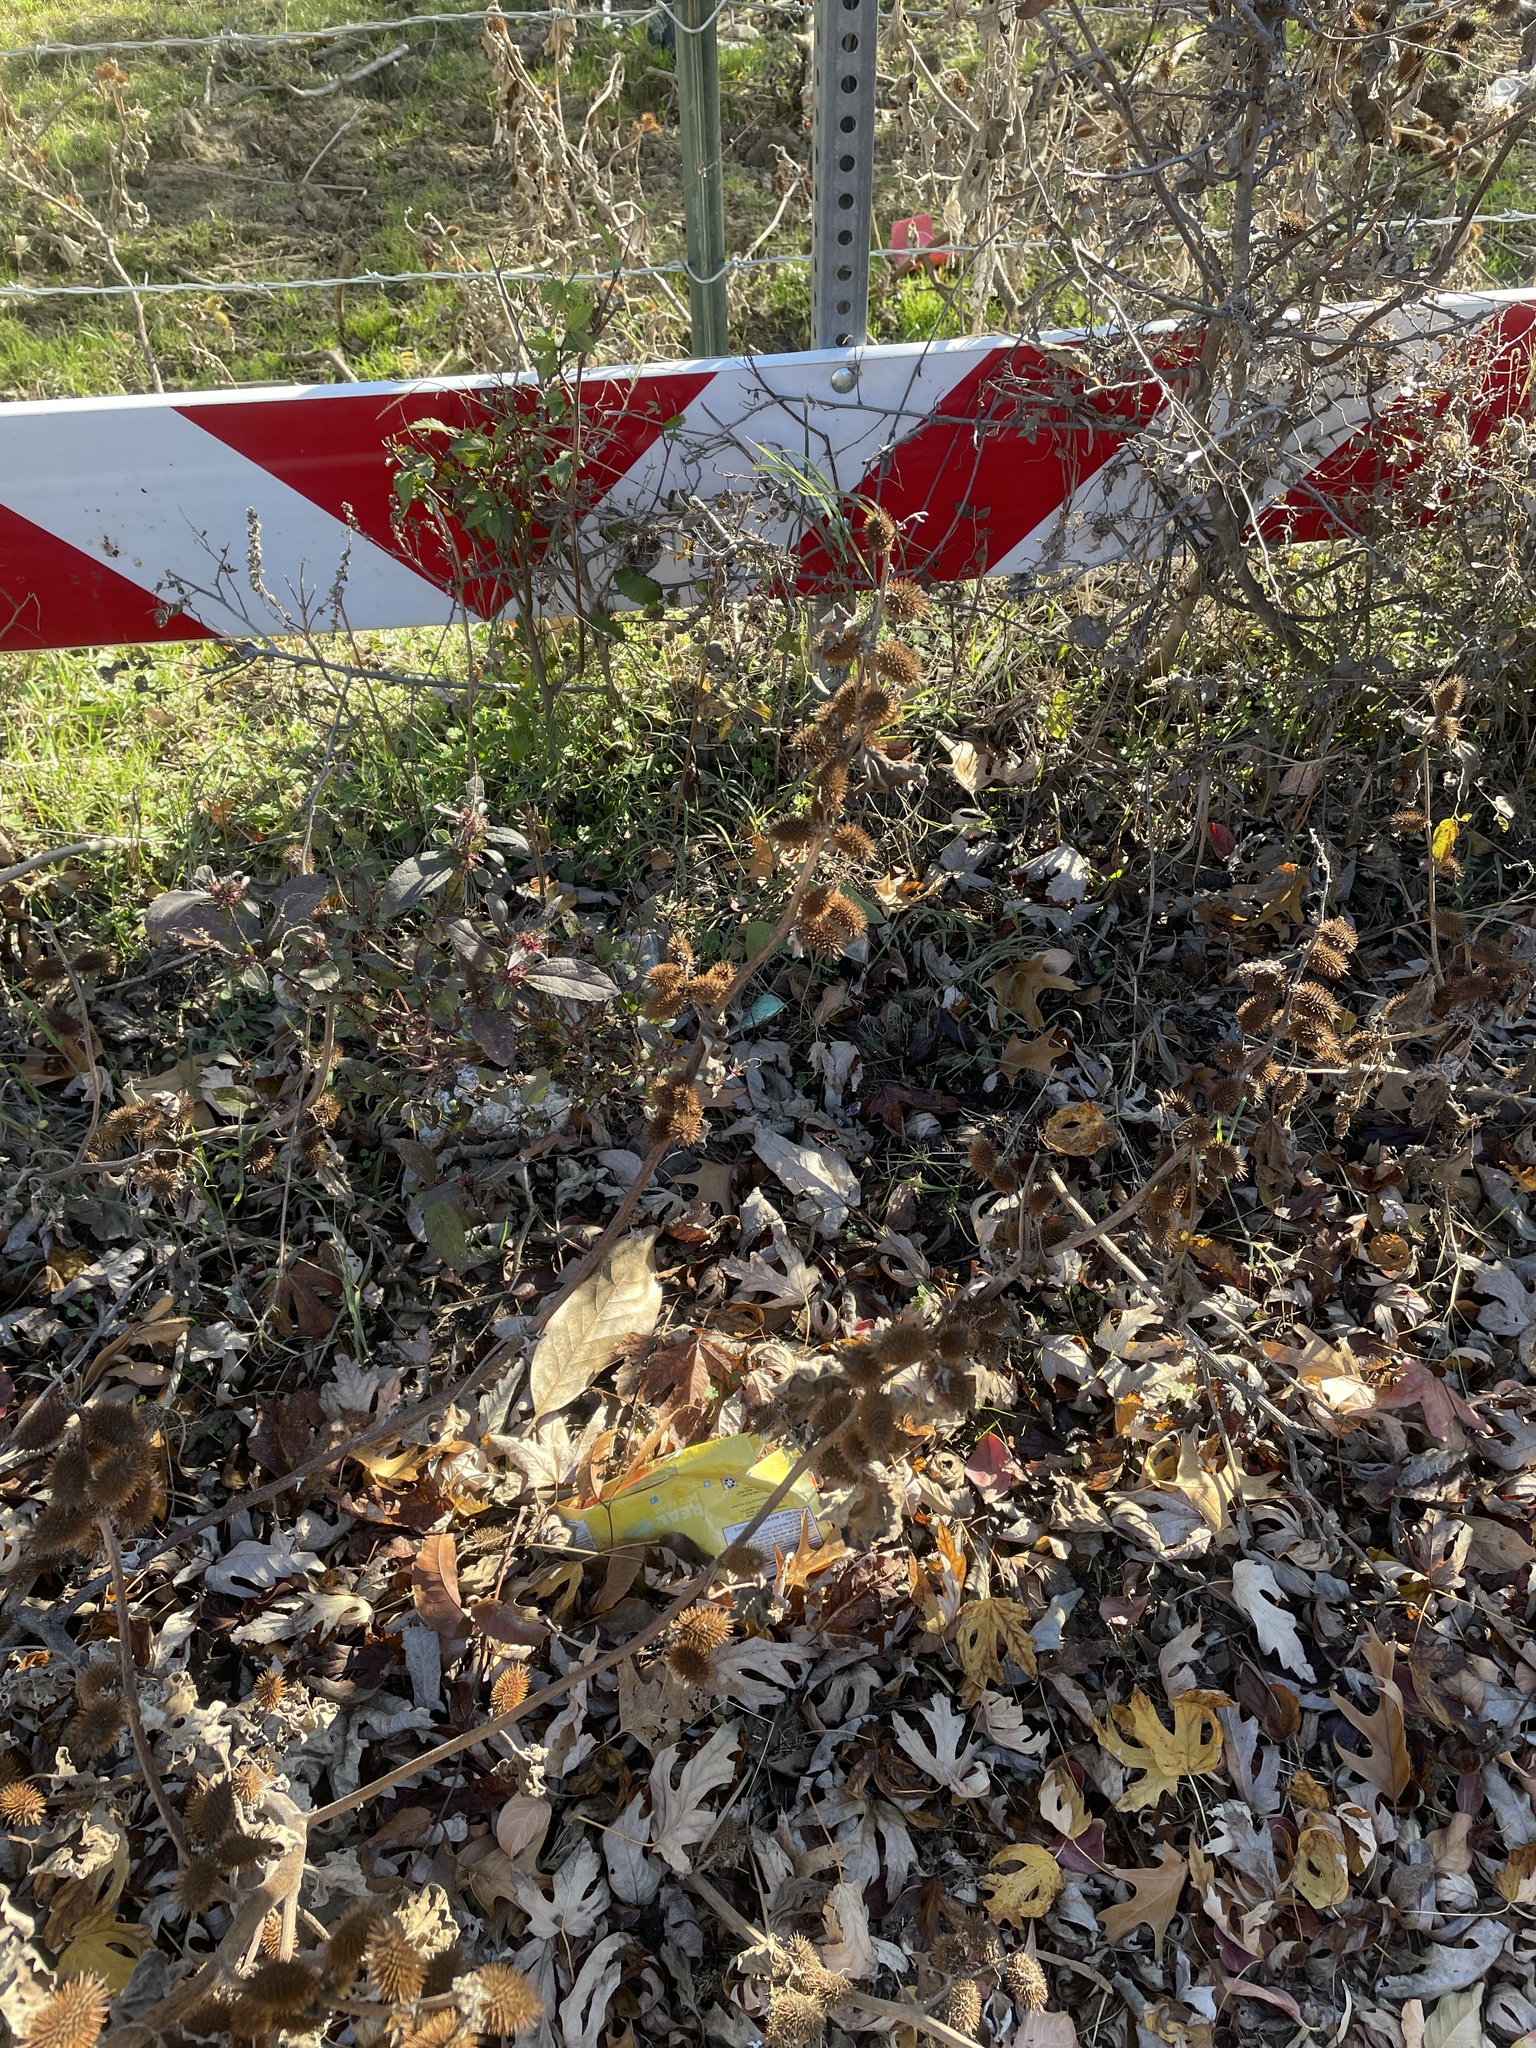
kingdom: Plantae
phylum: Tracheophyta
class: Magnoliopsida
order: Asterales
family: Asteraceae
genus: Xanthium
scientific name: Xanthium strumarium
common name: Rough cocklebur
